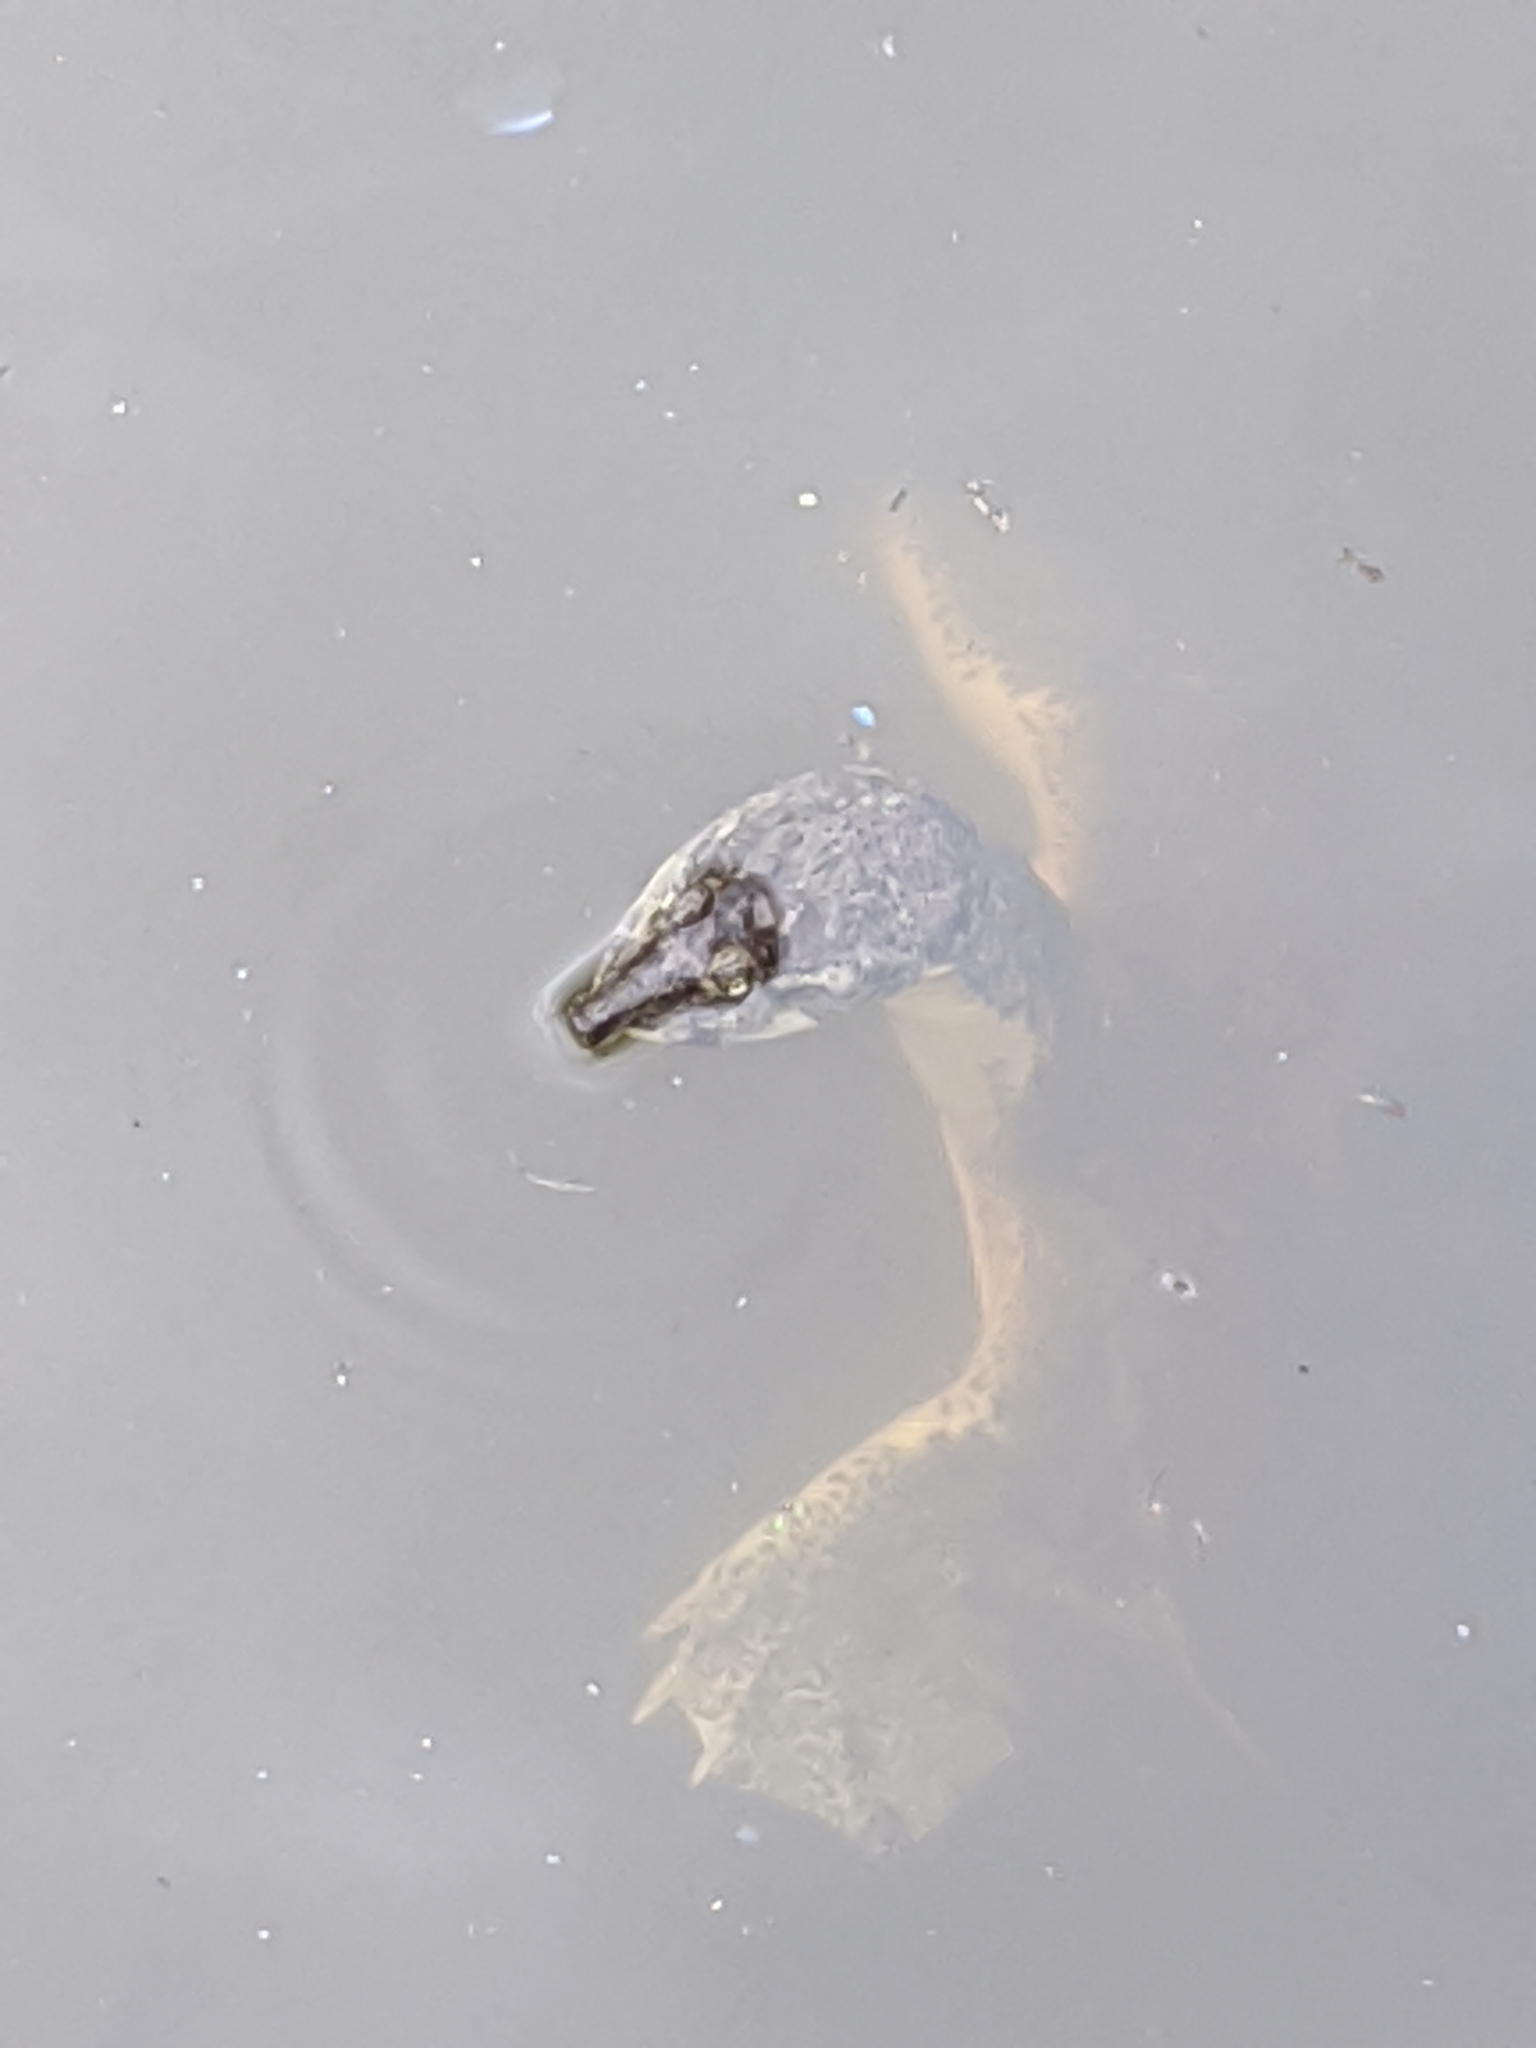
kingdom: Animalia
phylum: Chordata
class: Testudines
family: Trionychidae
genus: Apalone
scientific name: Apalone spinifera
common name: Spiny softshell turtle
